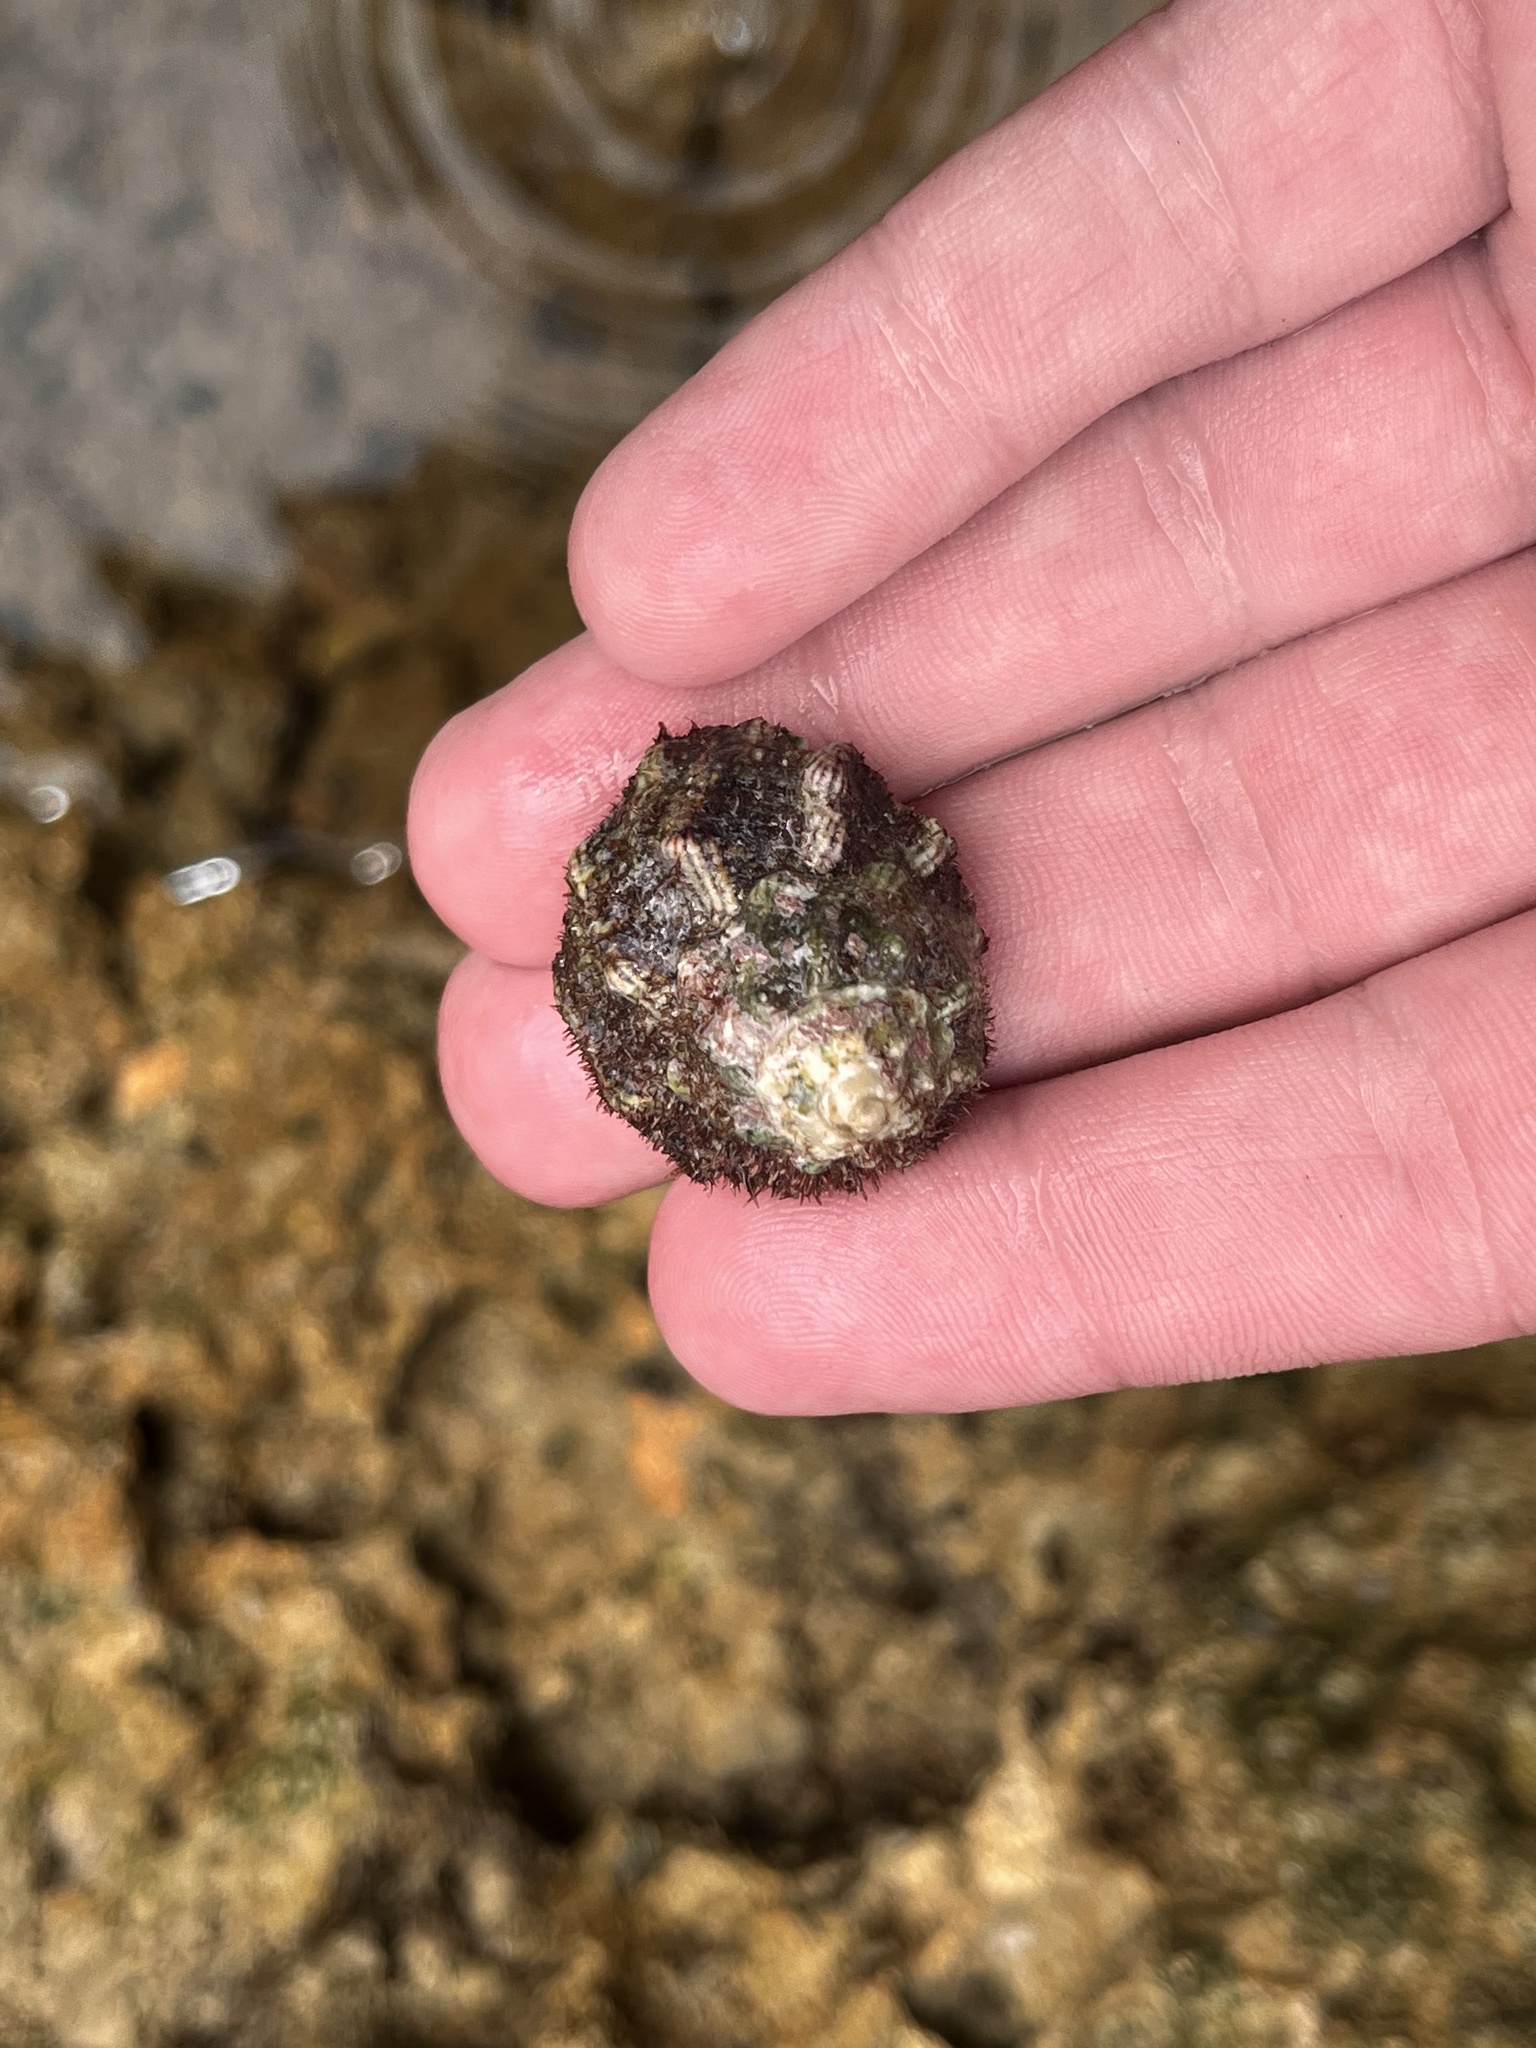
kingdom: Animalia
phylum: Mollusca
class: Gastropoda
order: Cycloneritida
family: Neritidae
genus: Nerita
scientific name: Nerita tessellata
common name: Checkered nerite
